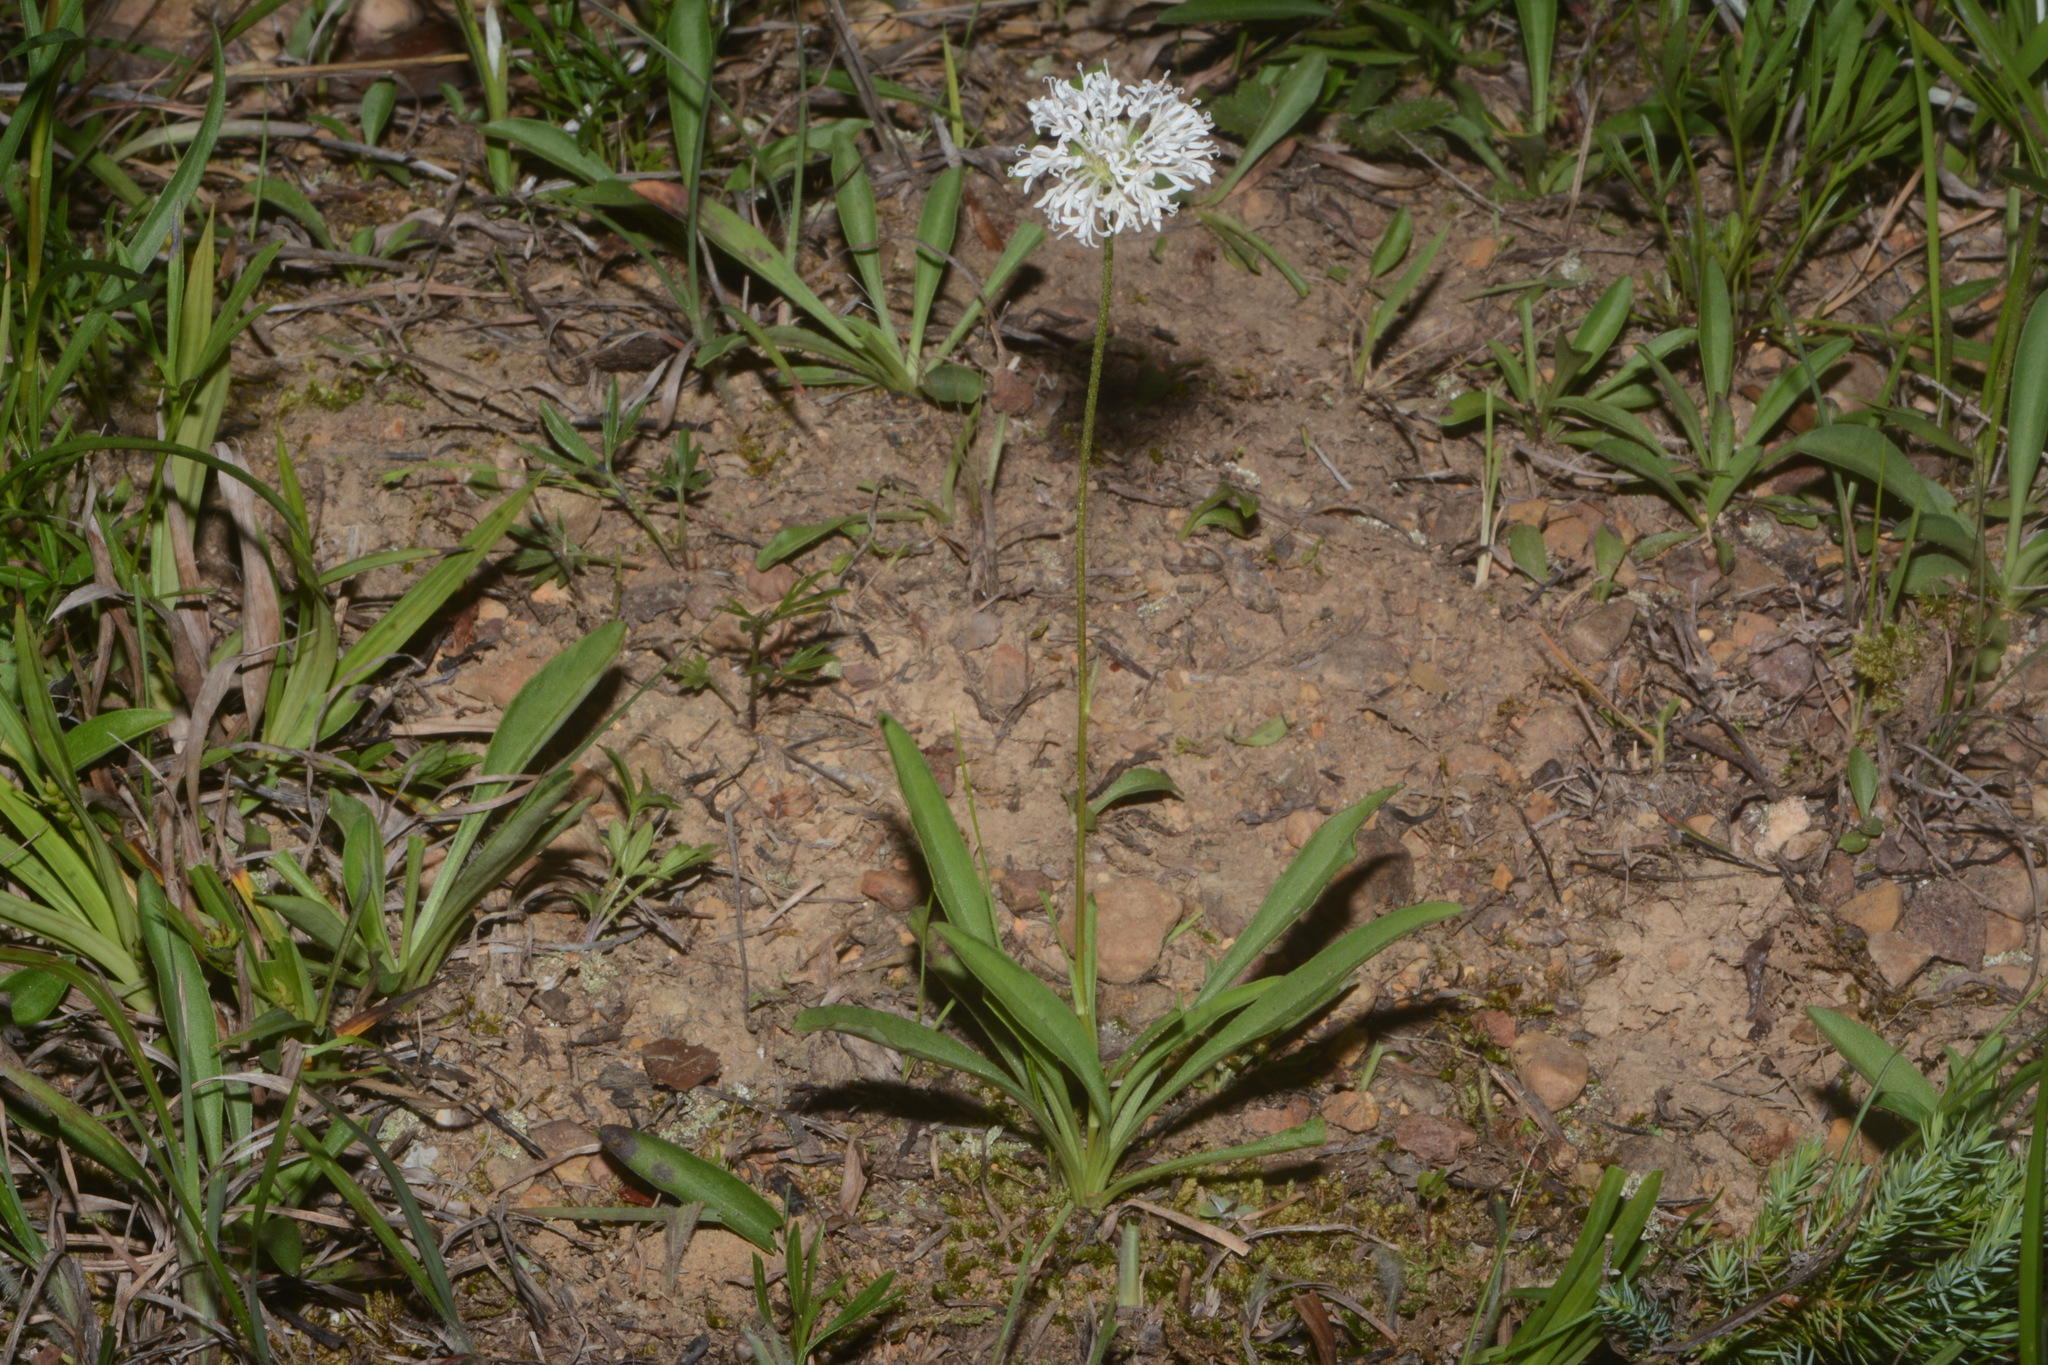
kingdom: Plantae
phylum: Tracheophyta
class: Magnoliopsida
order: Asterales
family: Asteraceae
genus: Marshallia
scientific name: Marshallia obovata
